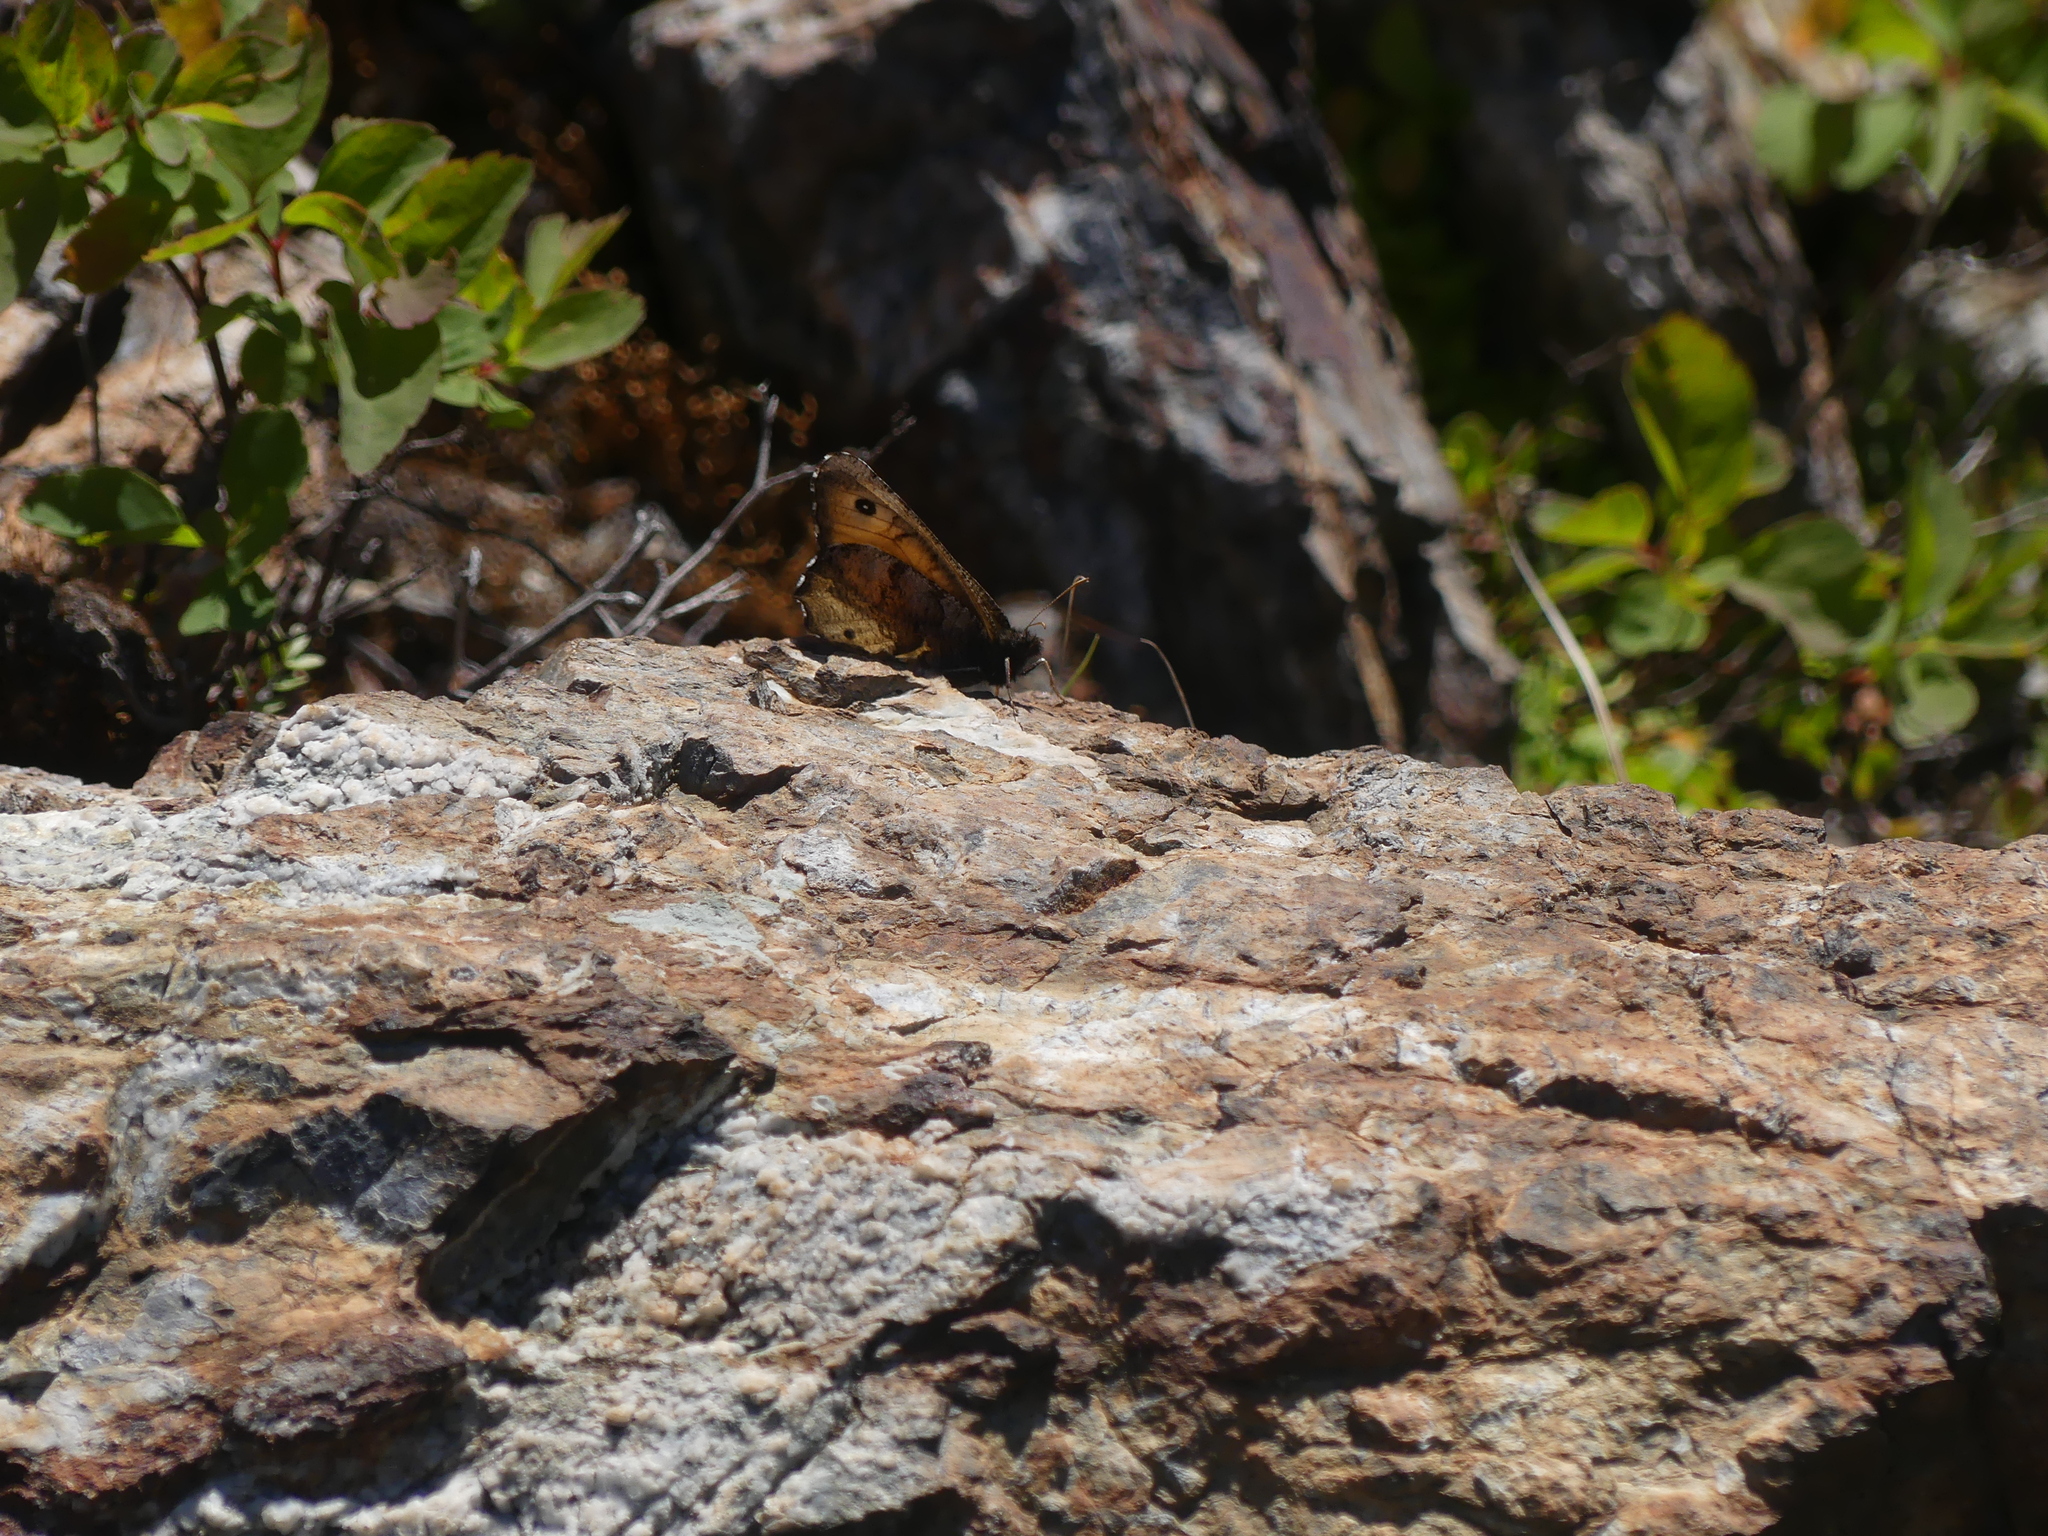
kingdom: Animalia
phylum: Arthropoda
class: Insecta
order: Lepidoptera
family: Nymphalidae
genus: Oeneis
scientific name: Oeneis macounii
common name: Macoun's arctic
